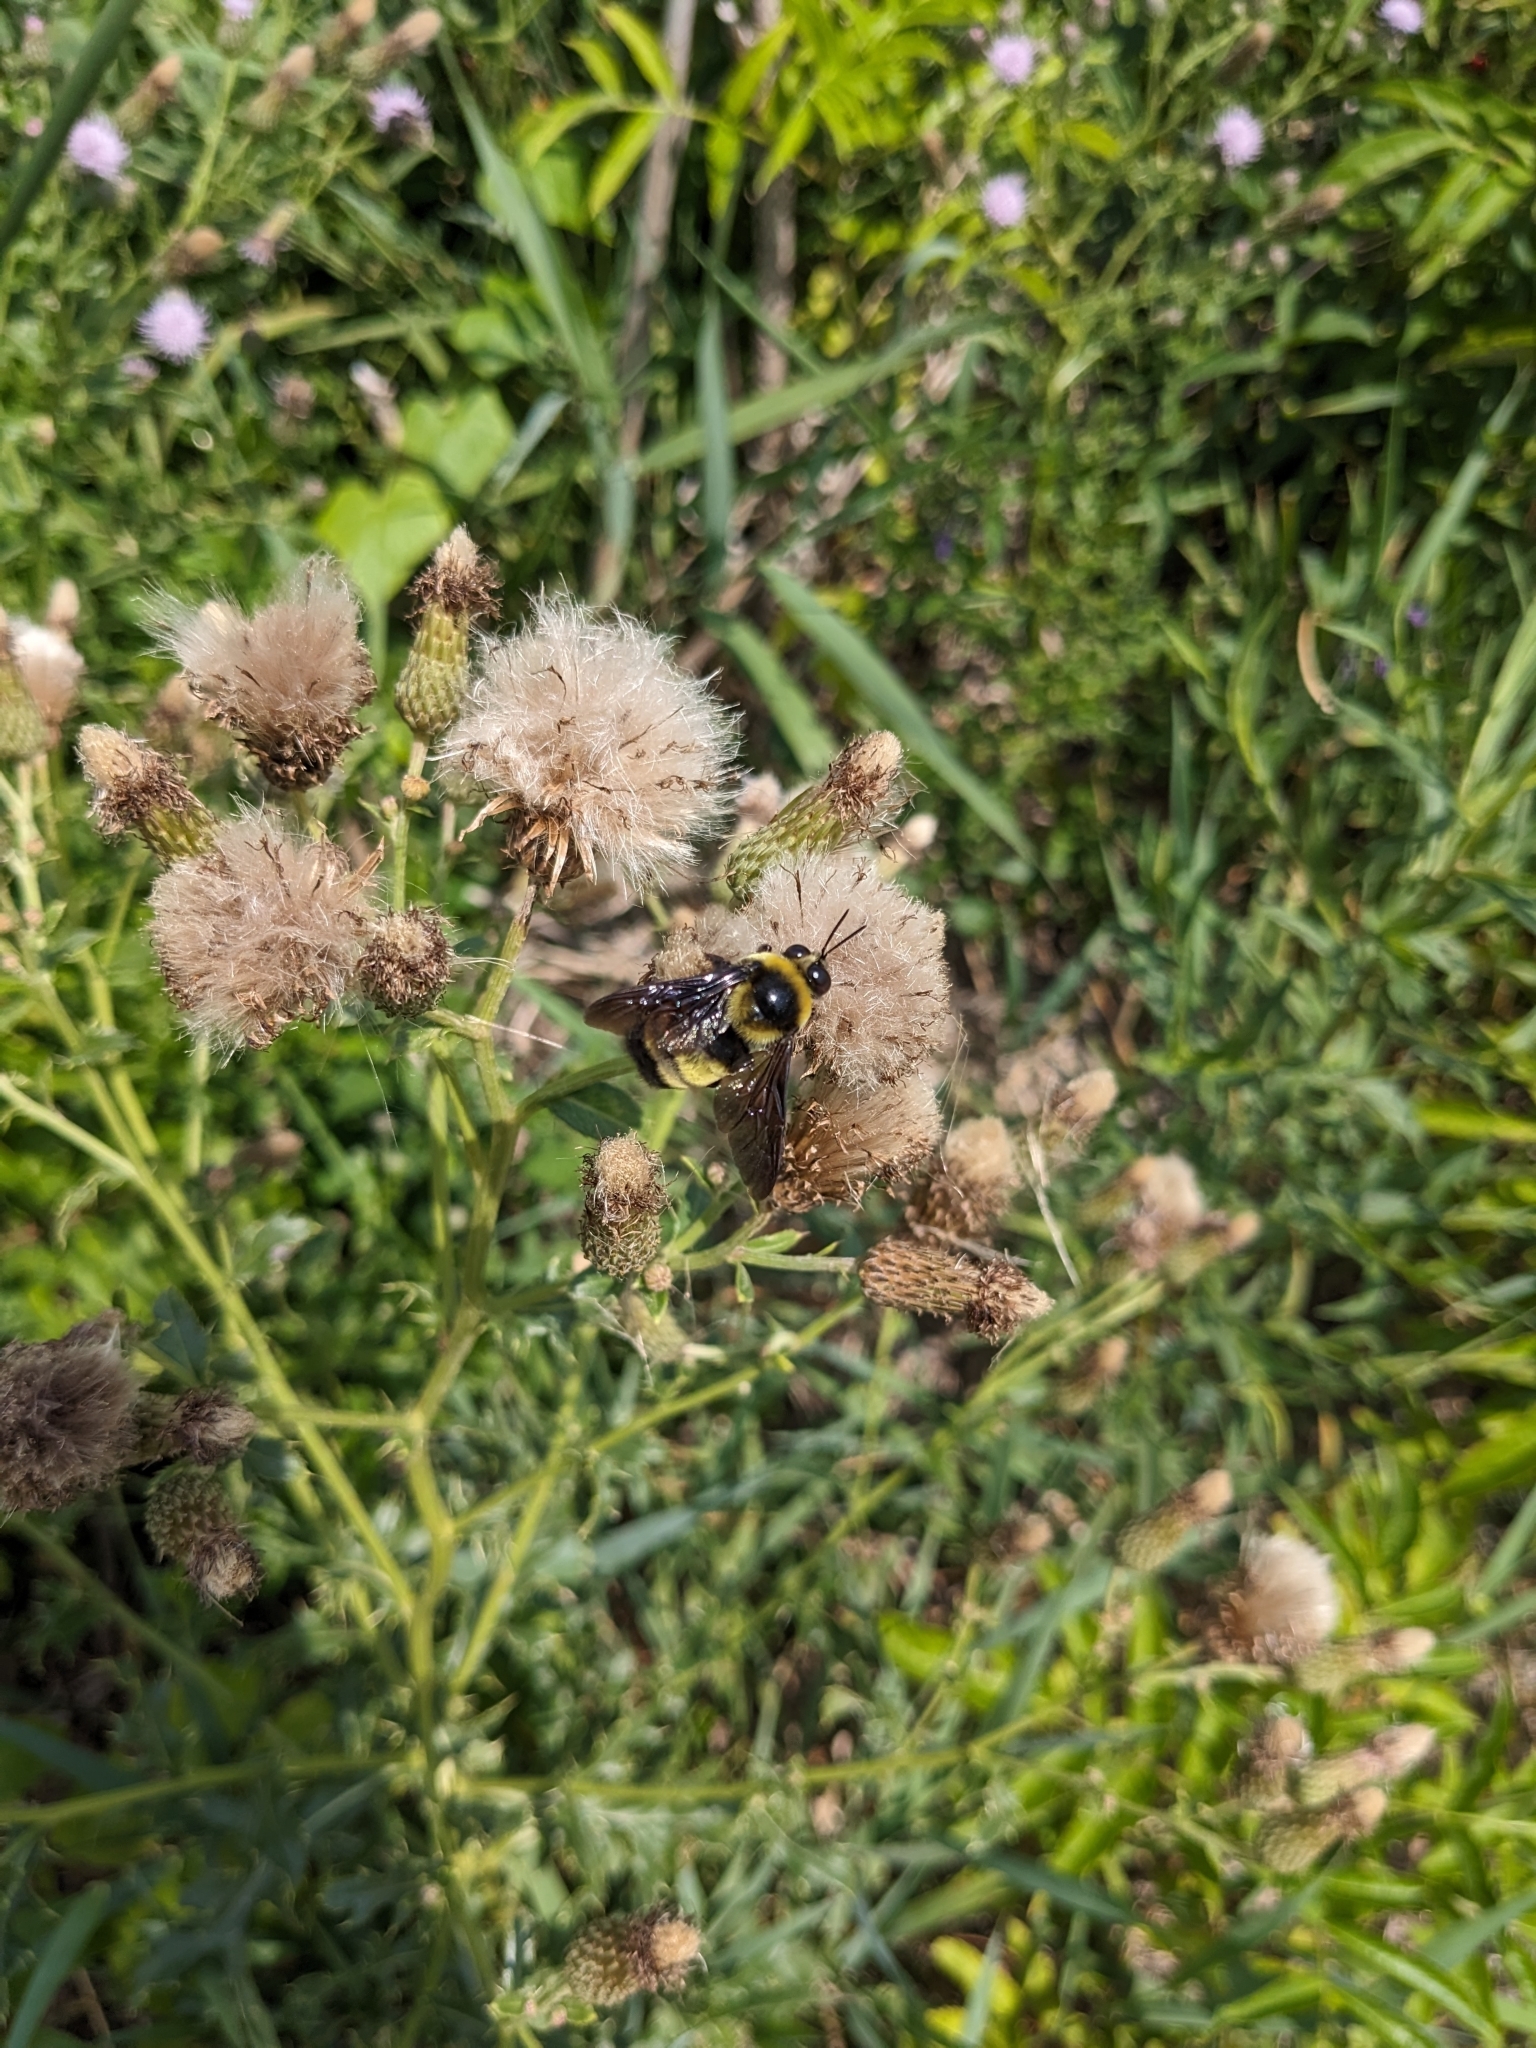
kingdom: Animalia
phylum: Arthropoda
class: Insecta
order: Hymenoptera
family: Apidae
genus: Bombus
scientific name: Bombus auricomus
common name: Black and gold bumble bee
